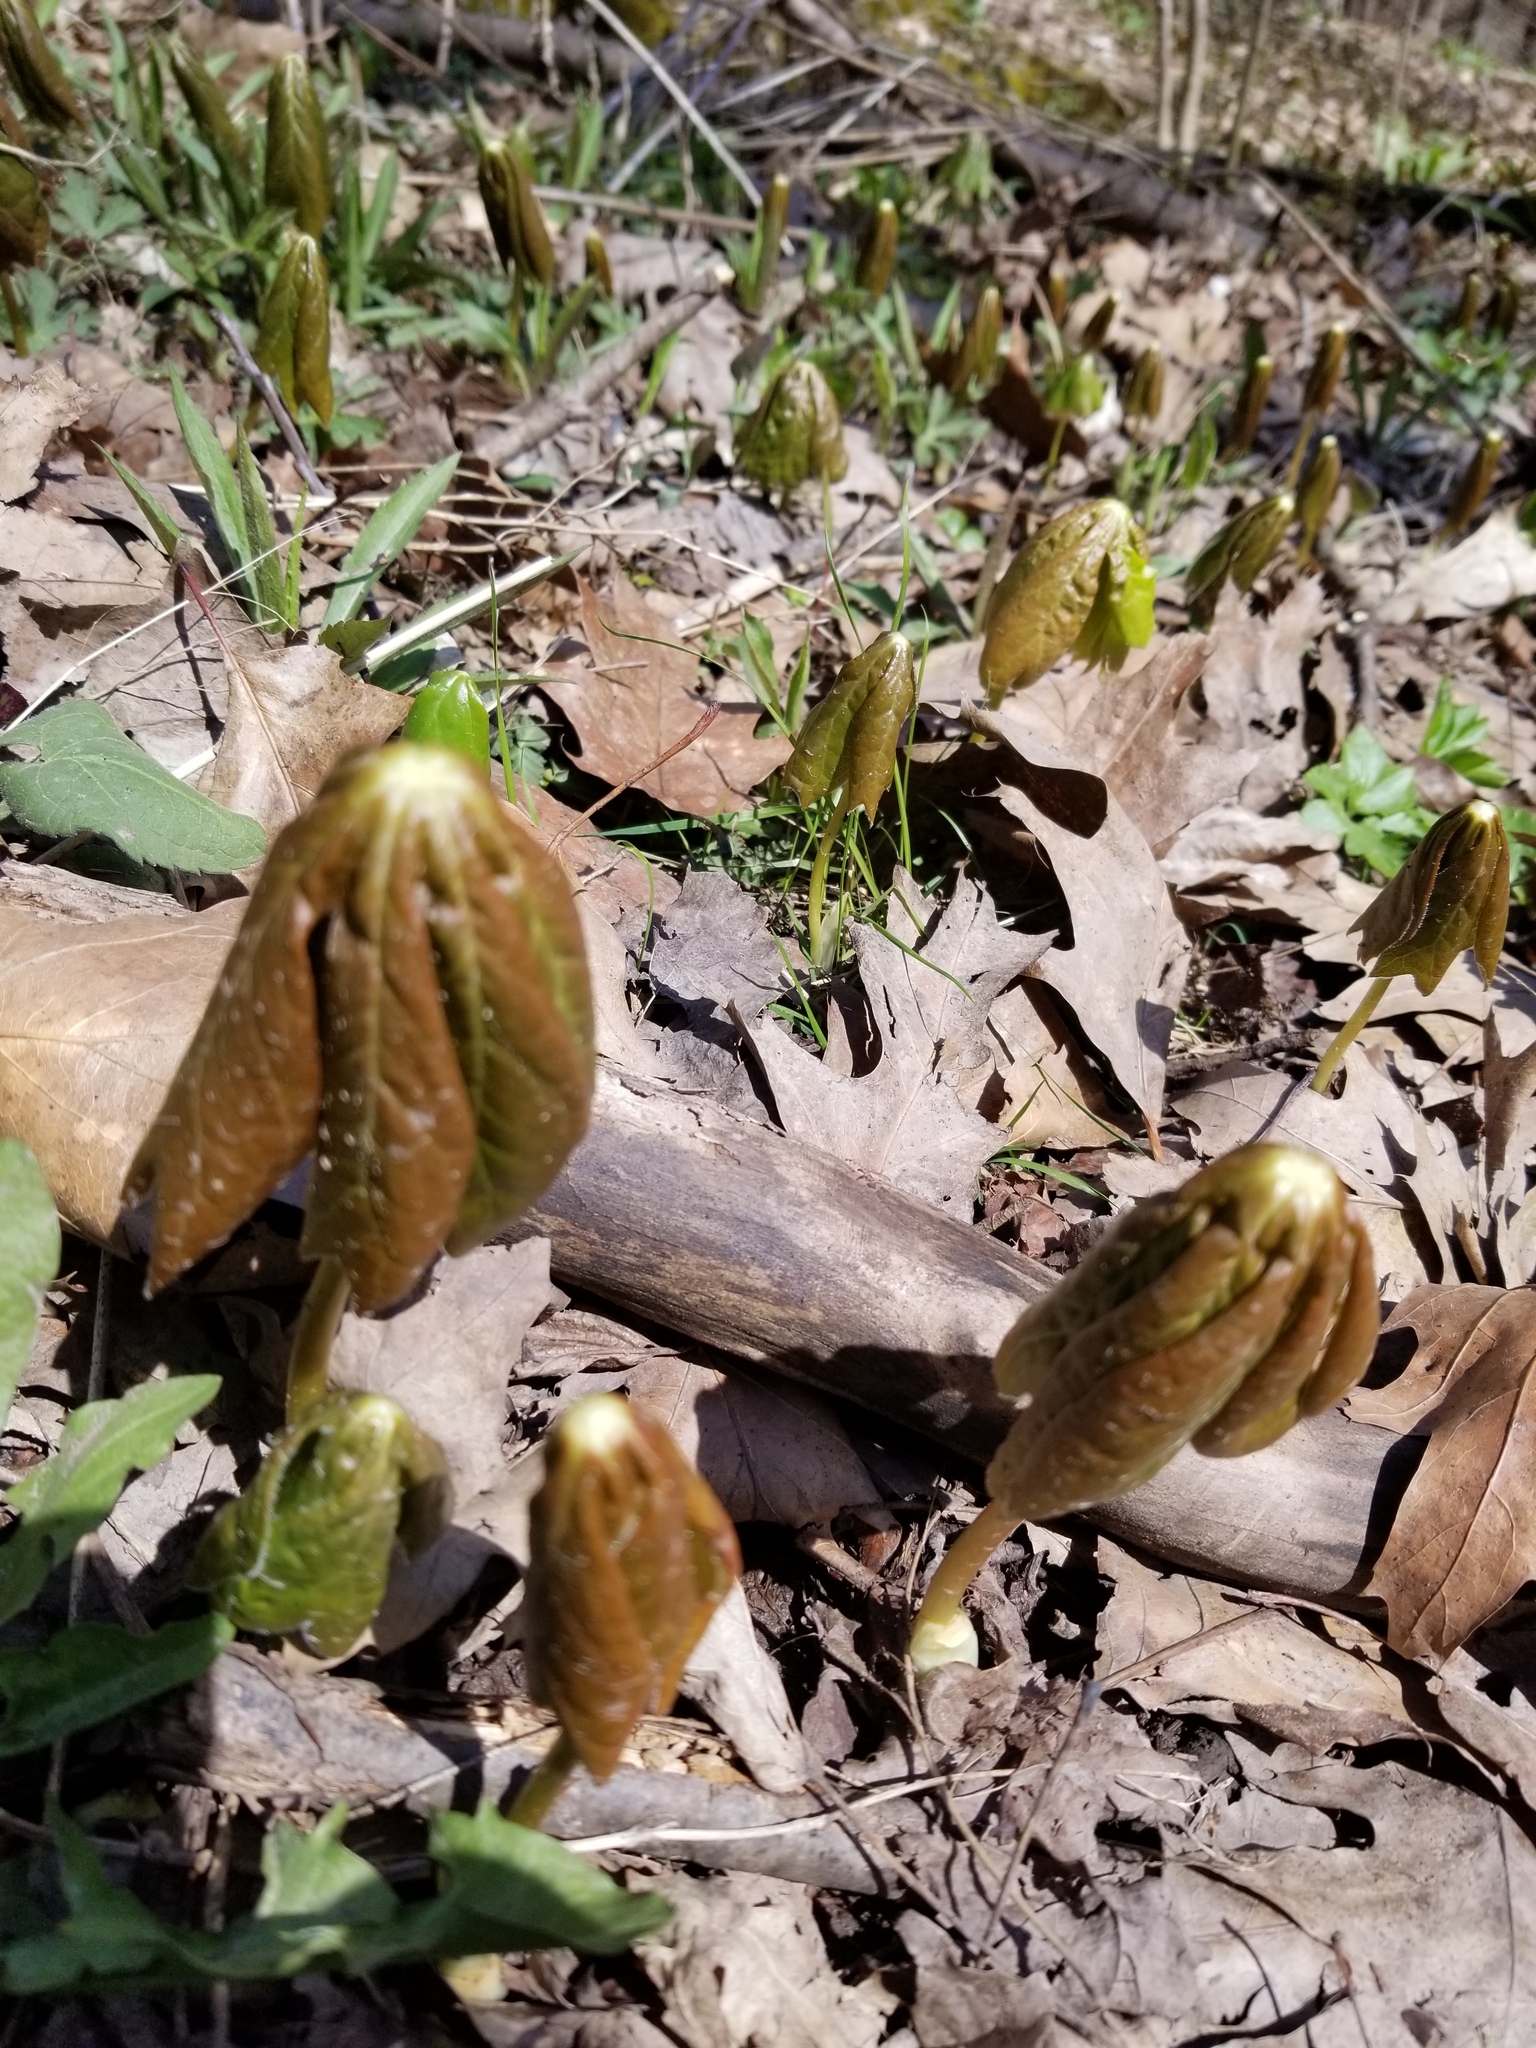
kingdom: Plantae
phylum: Tracheophyta
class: Magnoliopsida
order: Ranunculales
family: Berberidaceae
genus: Podophyllum
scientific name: Podophyllum peltatum
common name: Wild mandrake
